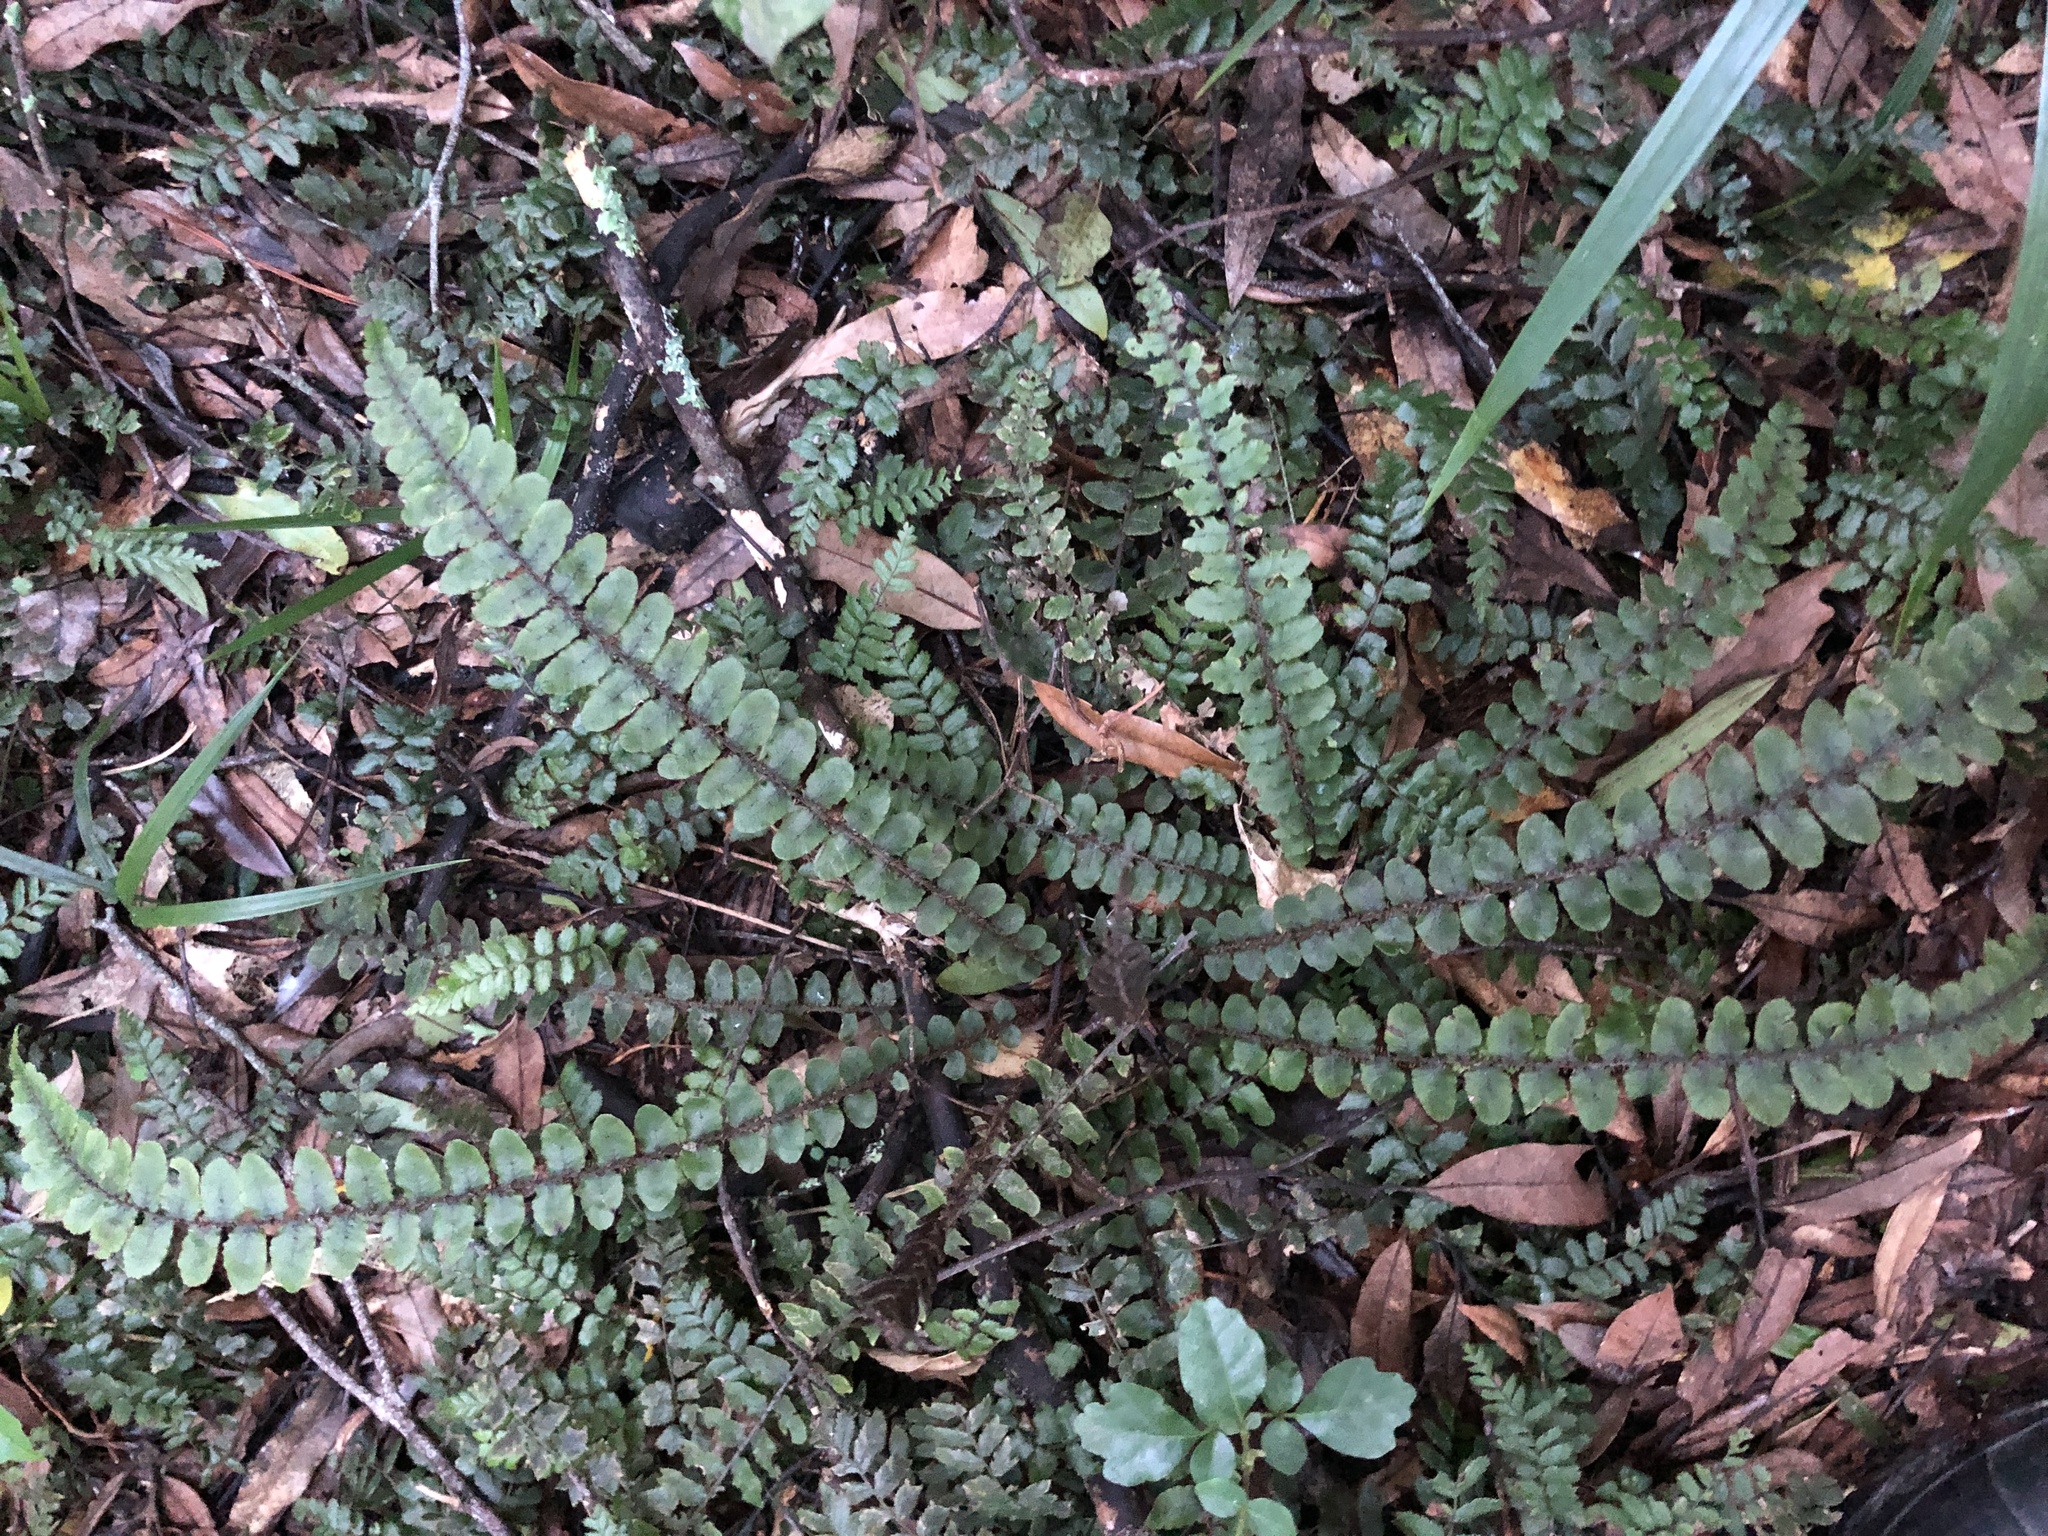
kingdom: Plantae
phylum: Tracheophyta
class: Polypodiopsida
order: Polypodiales
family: Blechnaceae
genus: Cranfillia
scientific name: Cranfillia fluviatilis
